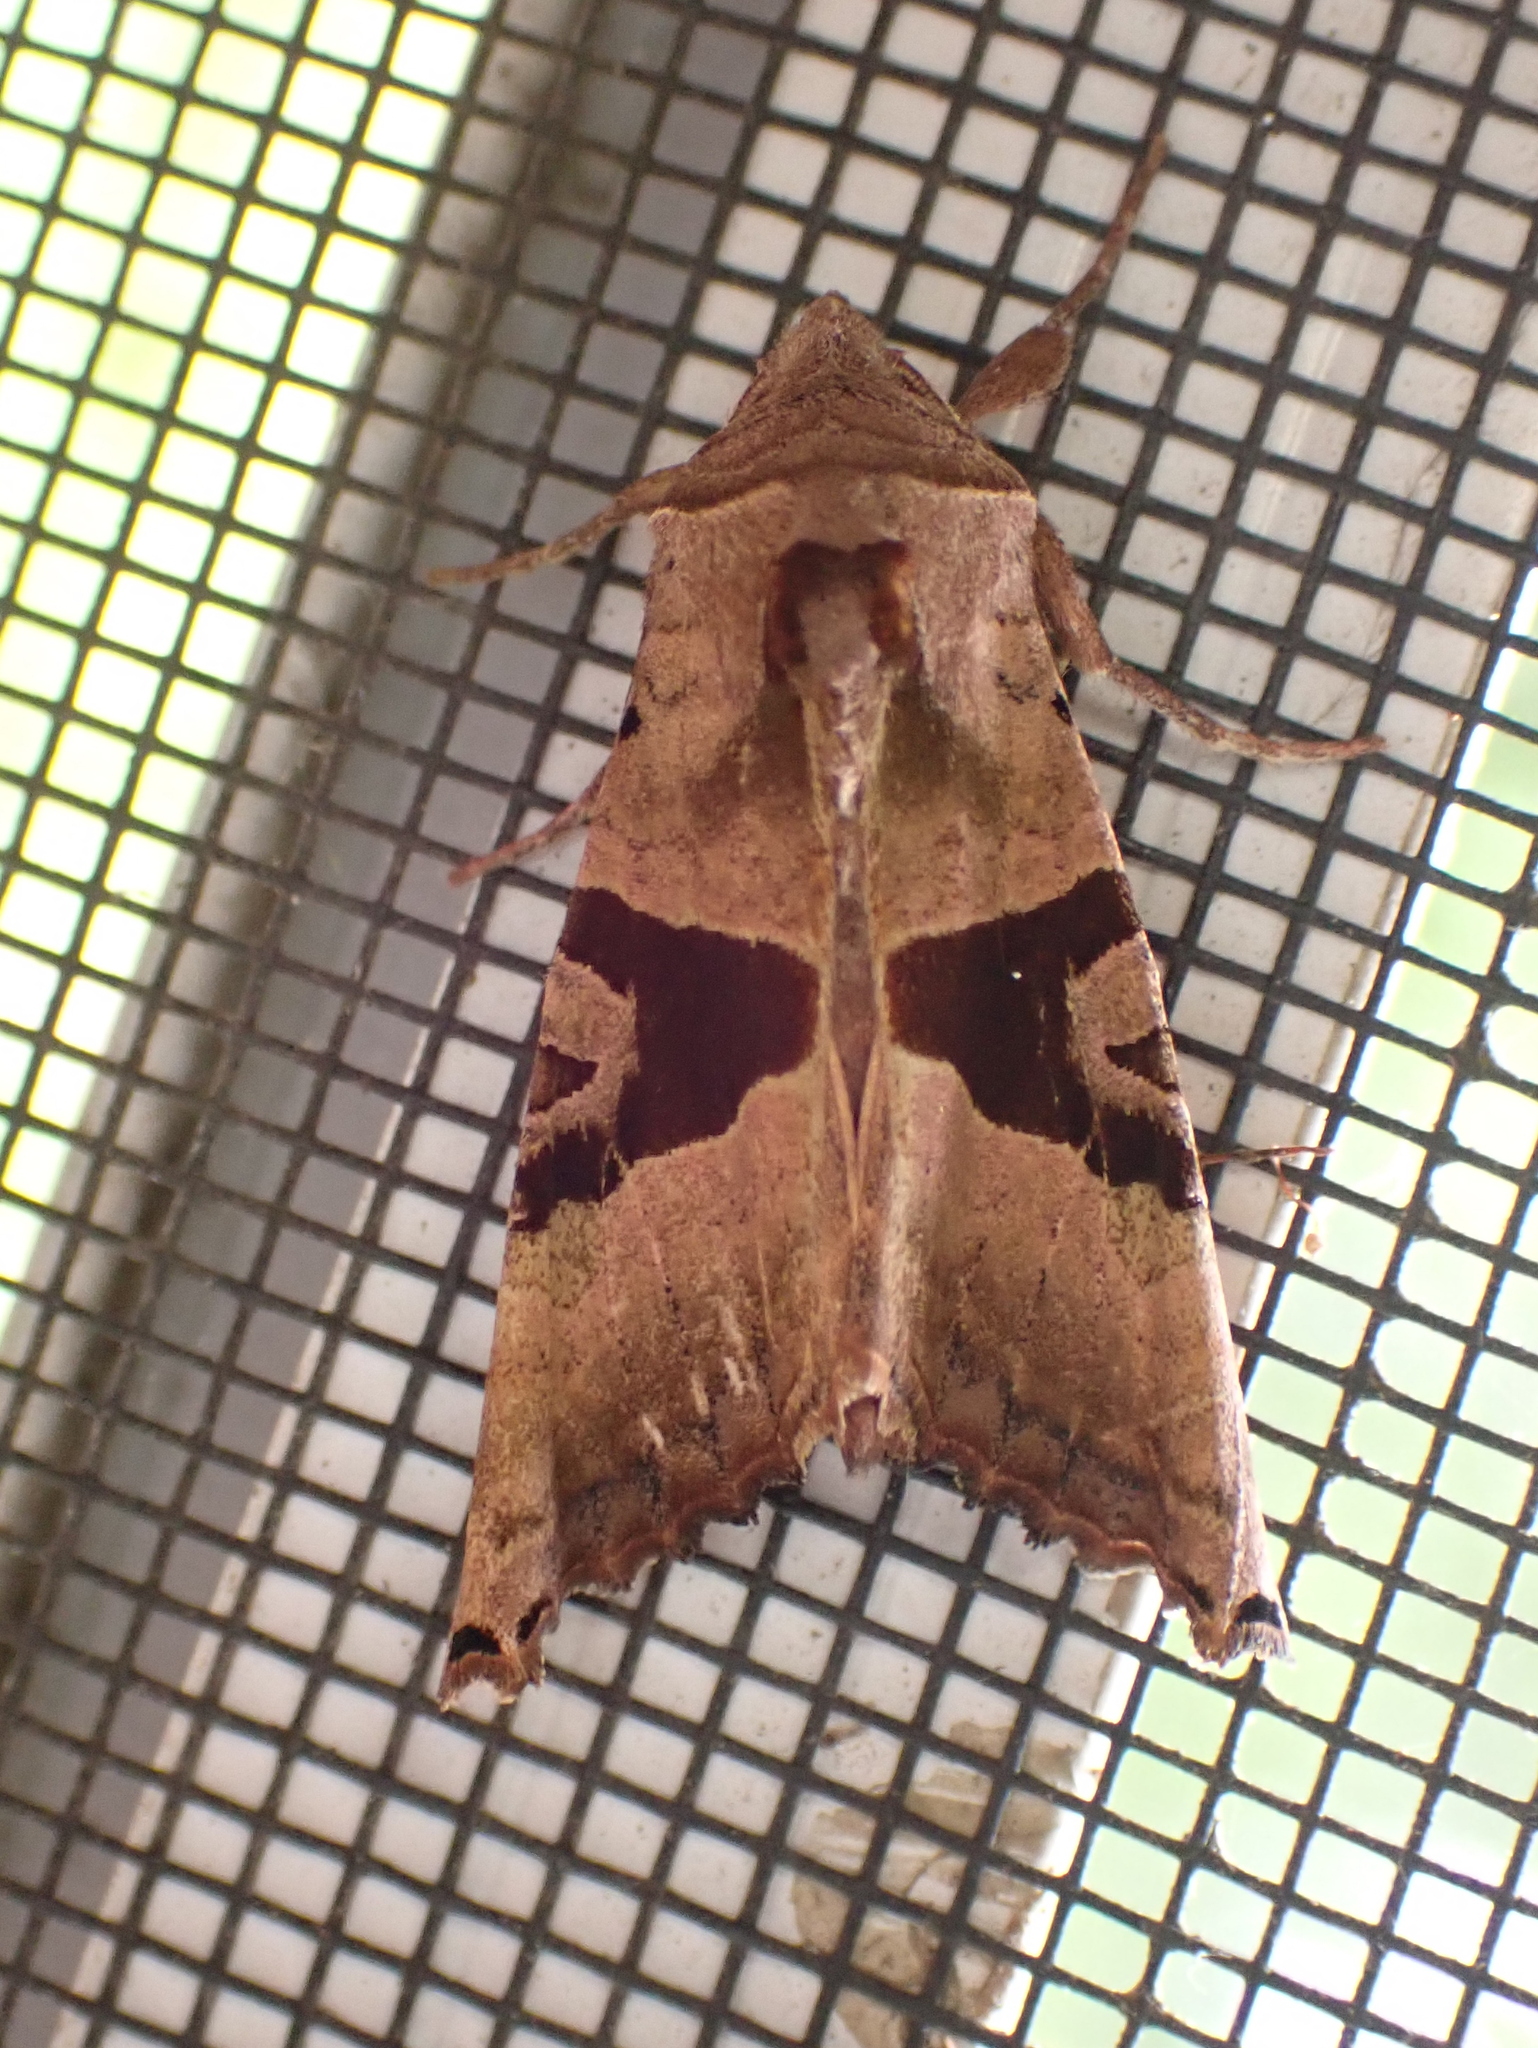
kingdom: Animalia
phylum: Arthropoda
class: Insecta
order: Lepidoptera
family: Noctuidae
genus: Phlogophora
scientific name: Phlogophora periculosa
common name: Brown angle shades
